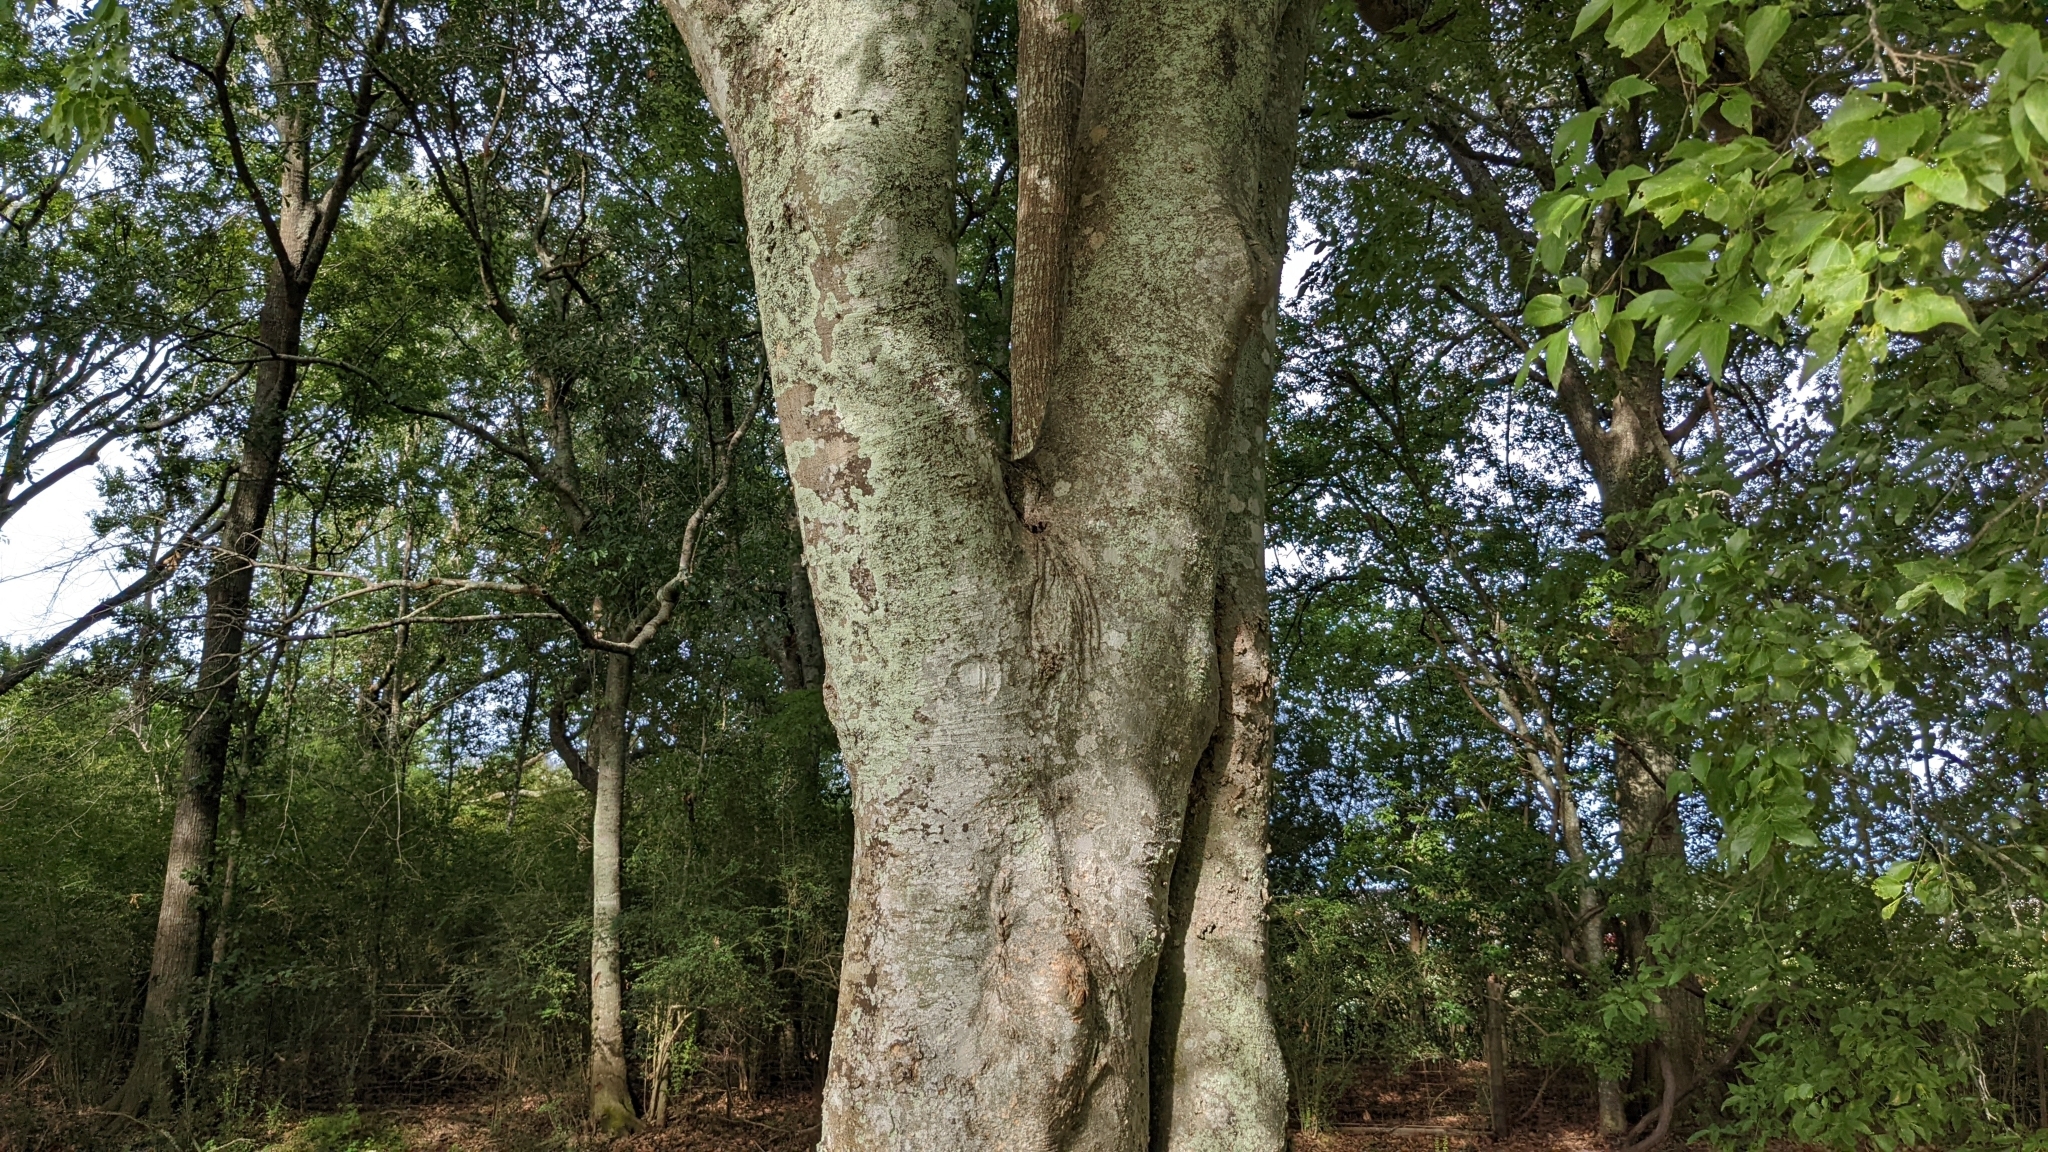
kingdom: Plantae
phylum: Tracheophyta
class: Magnoliopsida
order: Rosales
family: Cannabaceae
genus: Celtis
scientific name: Celtis laevigata
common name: Sugarberry
